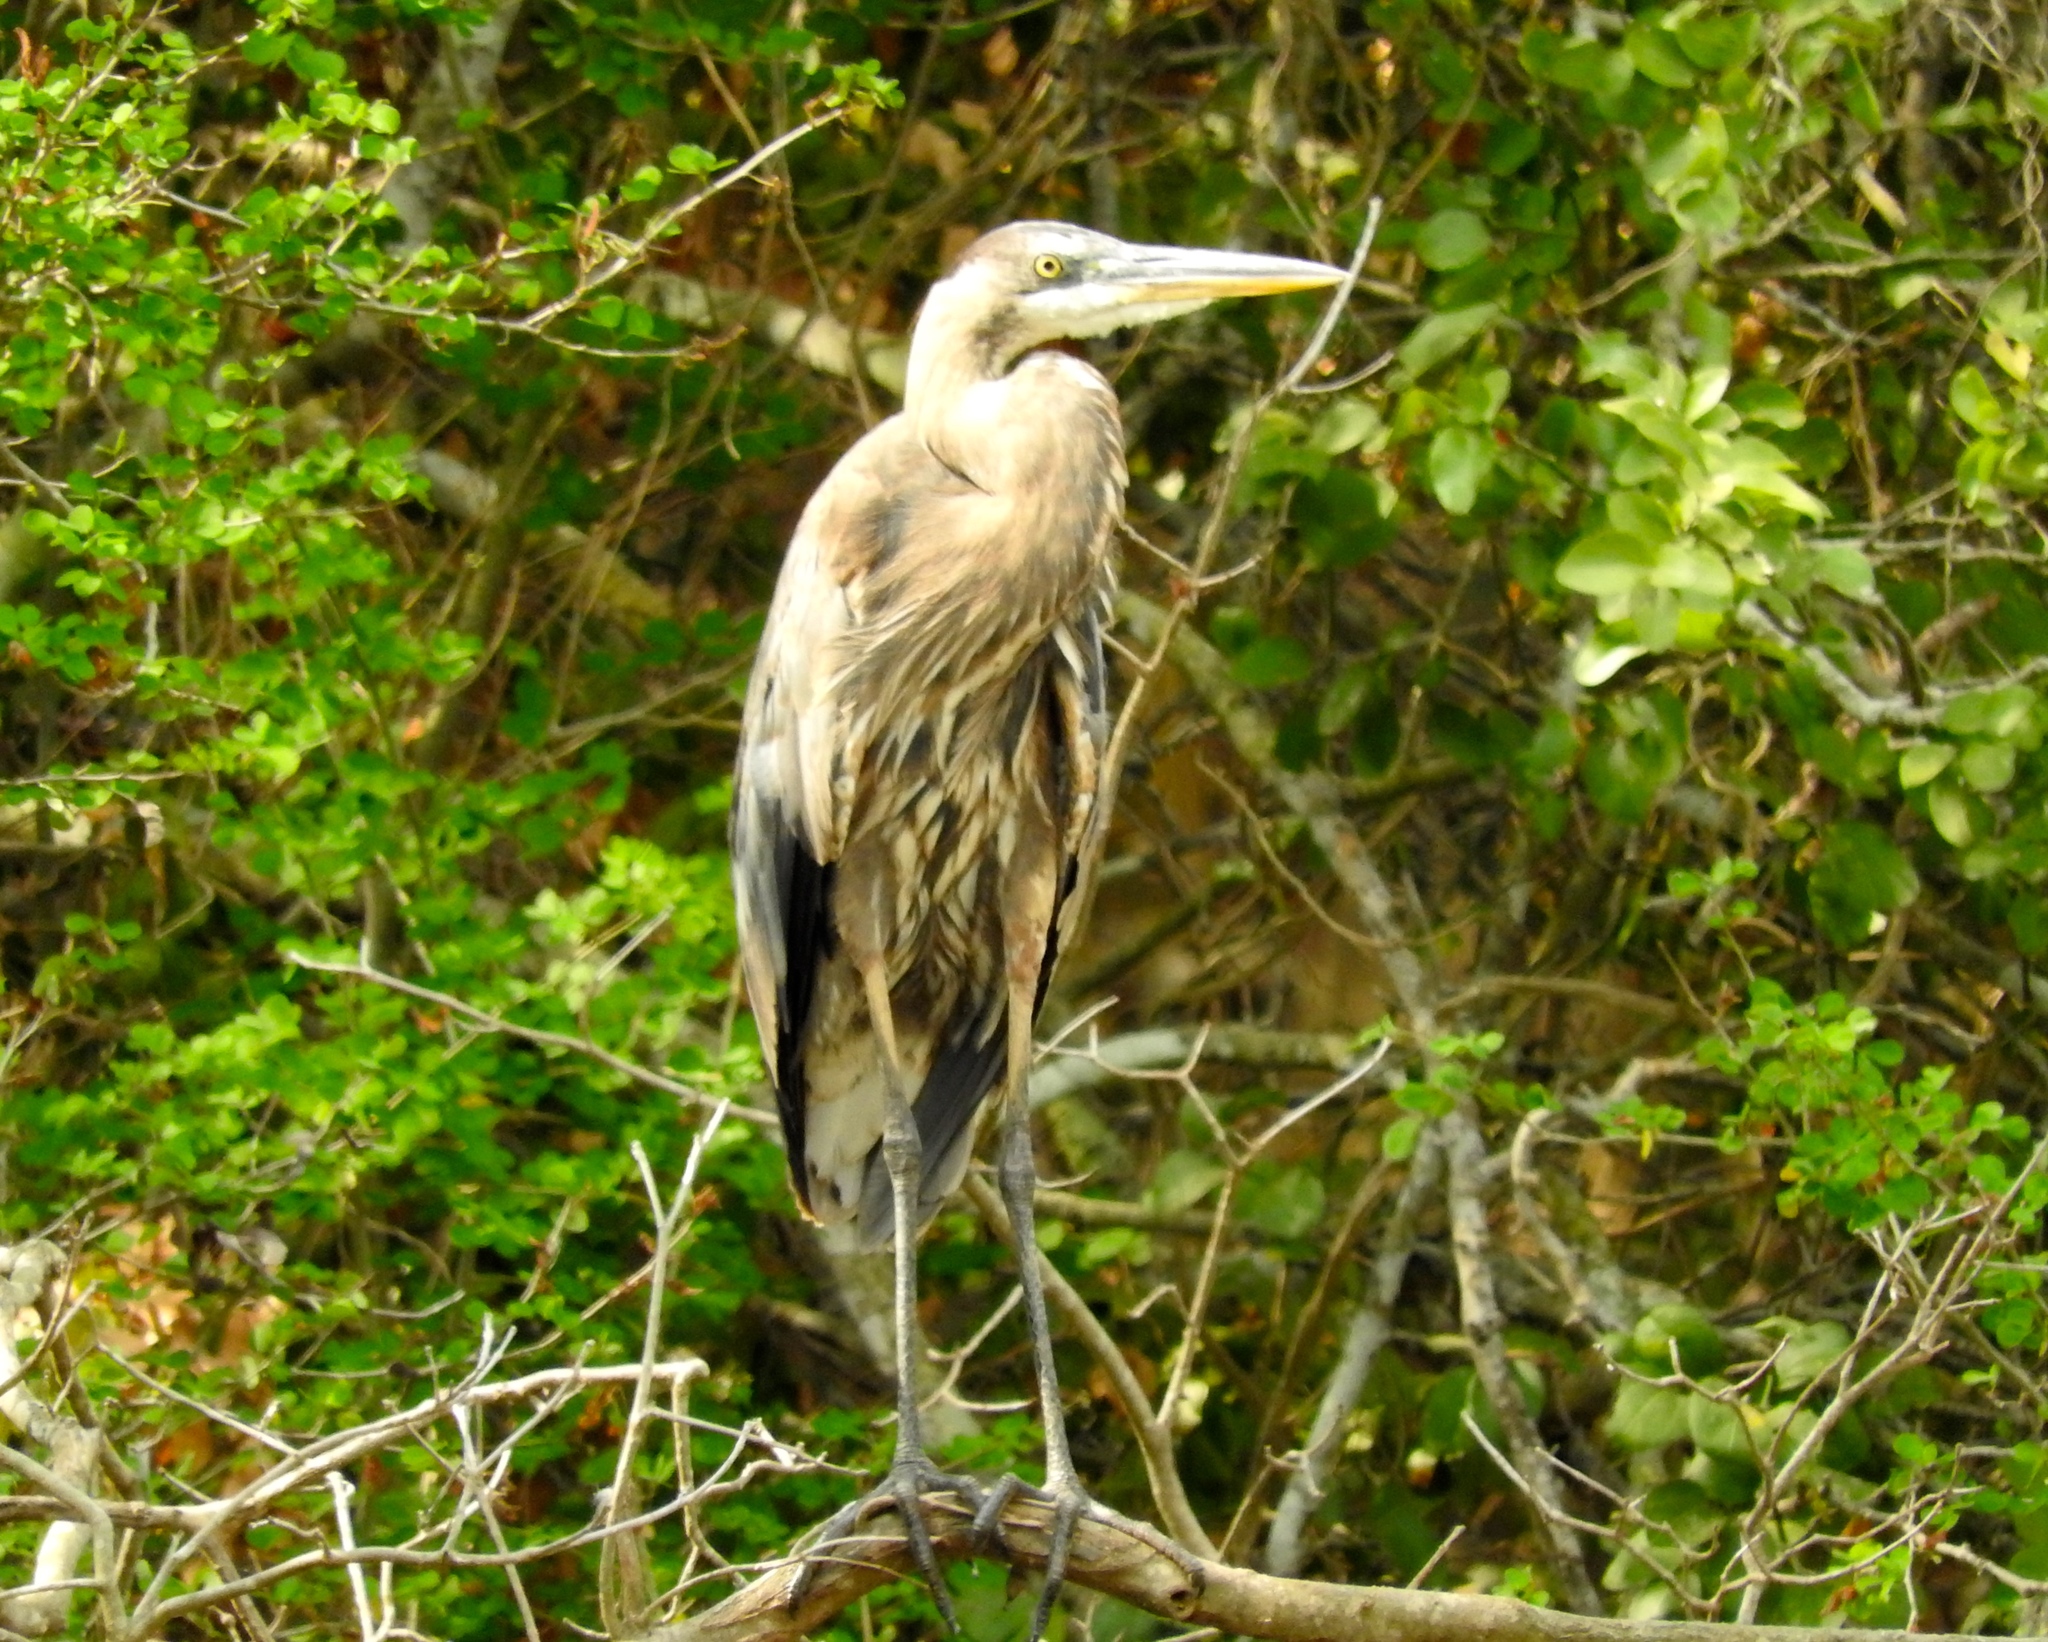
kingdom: Animalia
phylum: Chordata
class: Aves
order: Pelecaniformes
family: Ardeidae
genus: Ardea
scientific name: Ardea herodias
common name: Great blue heron
